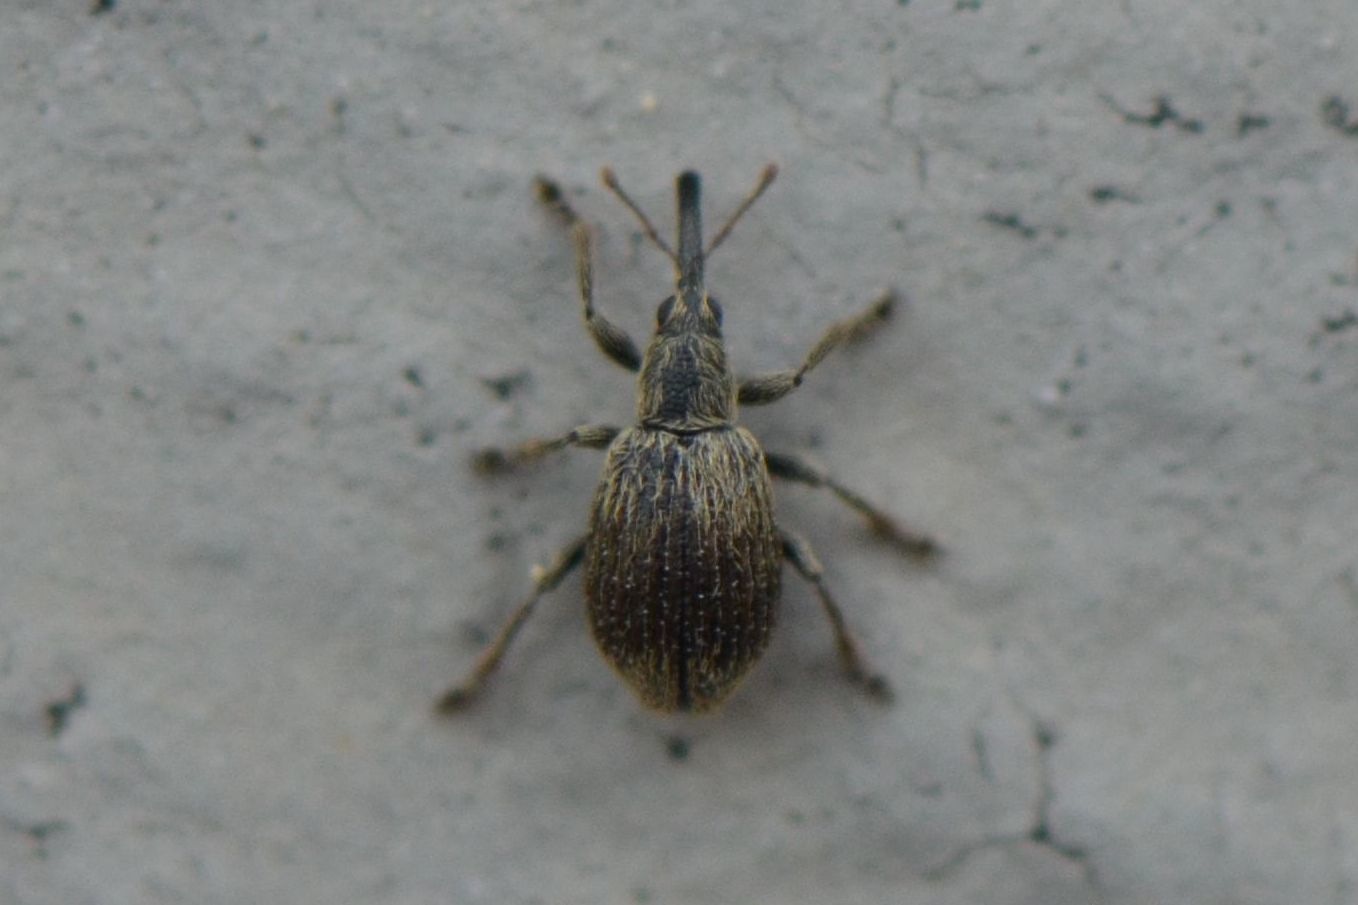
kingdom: Animalia
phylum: Arthropoda
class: Insecta
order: Coleoptera
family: Apionidae
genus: Trichopterapion
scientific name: Trichopterapion holosericeum
